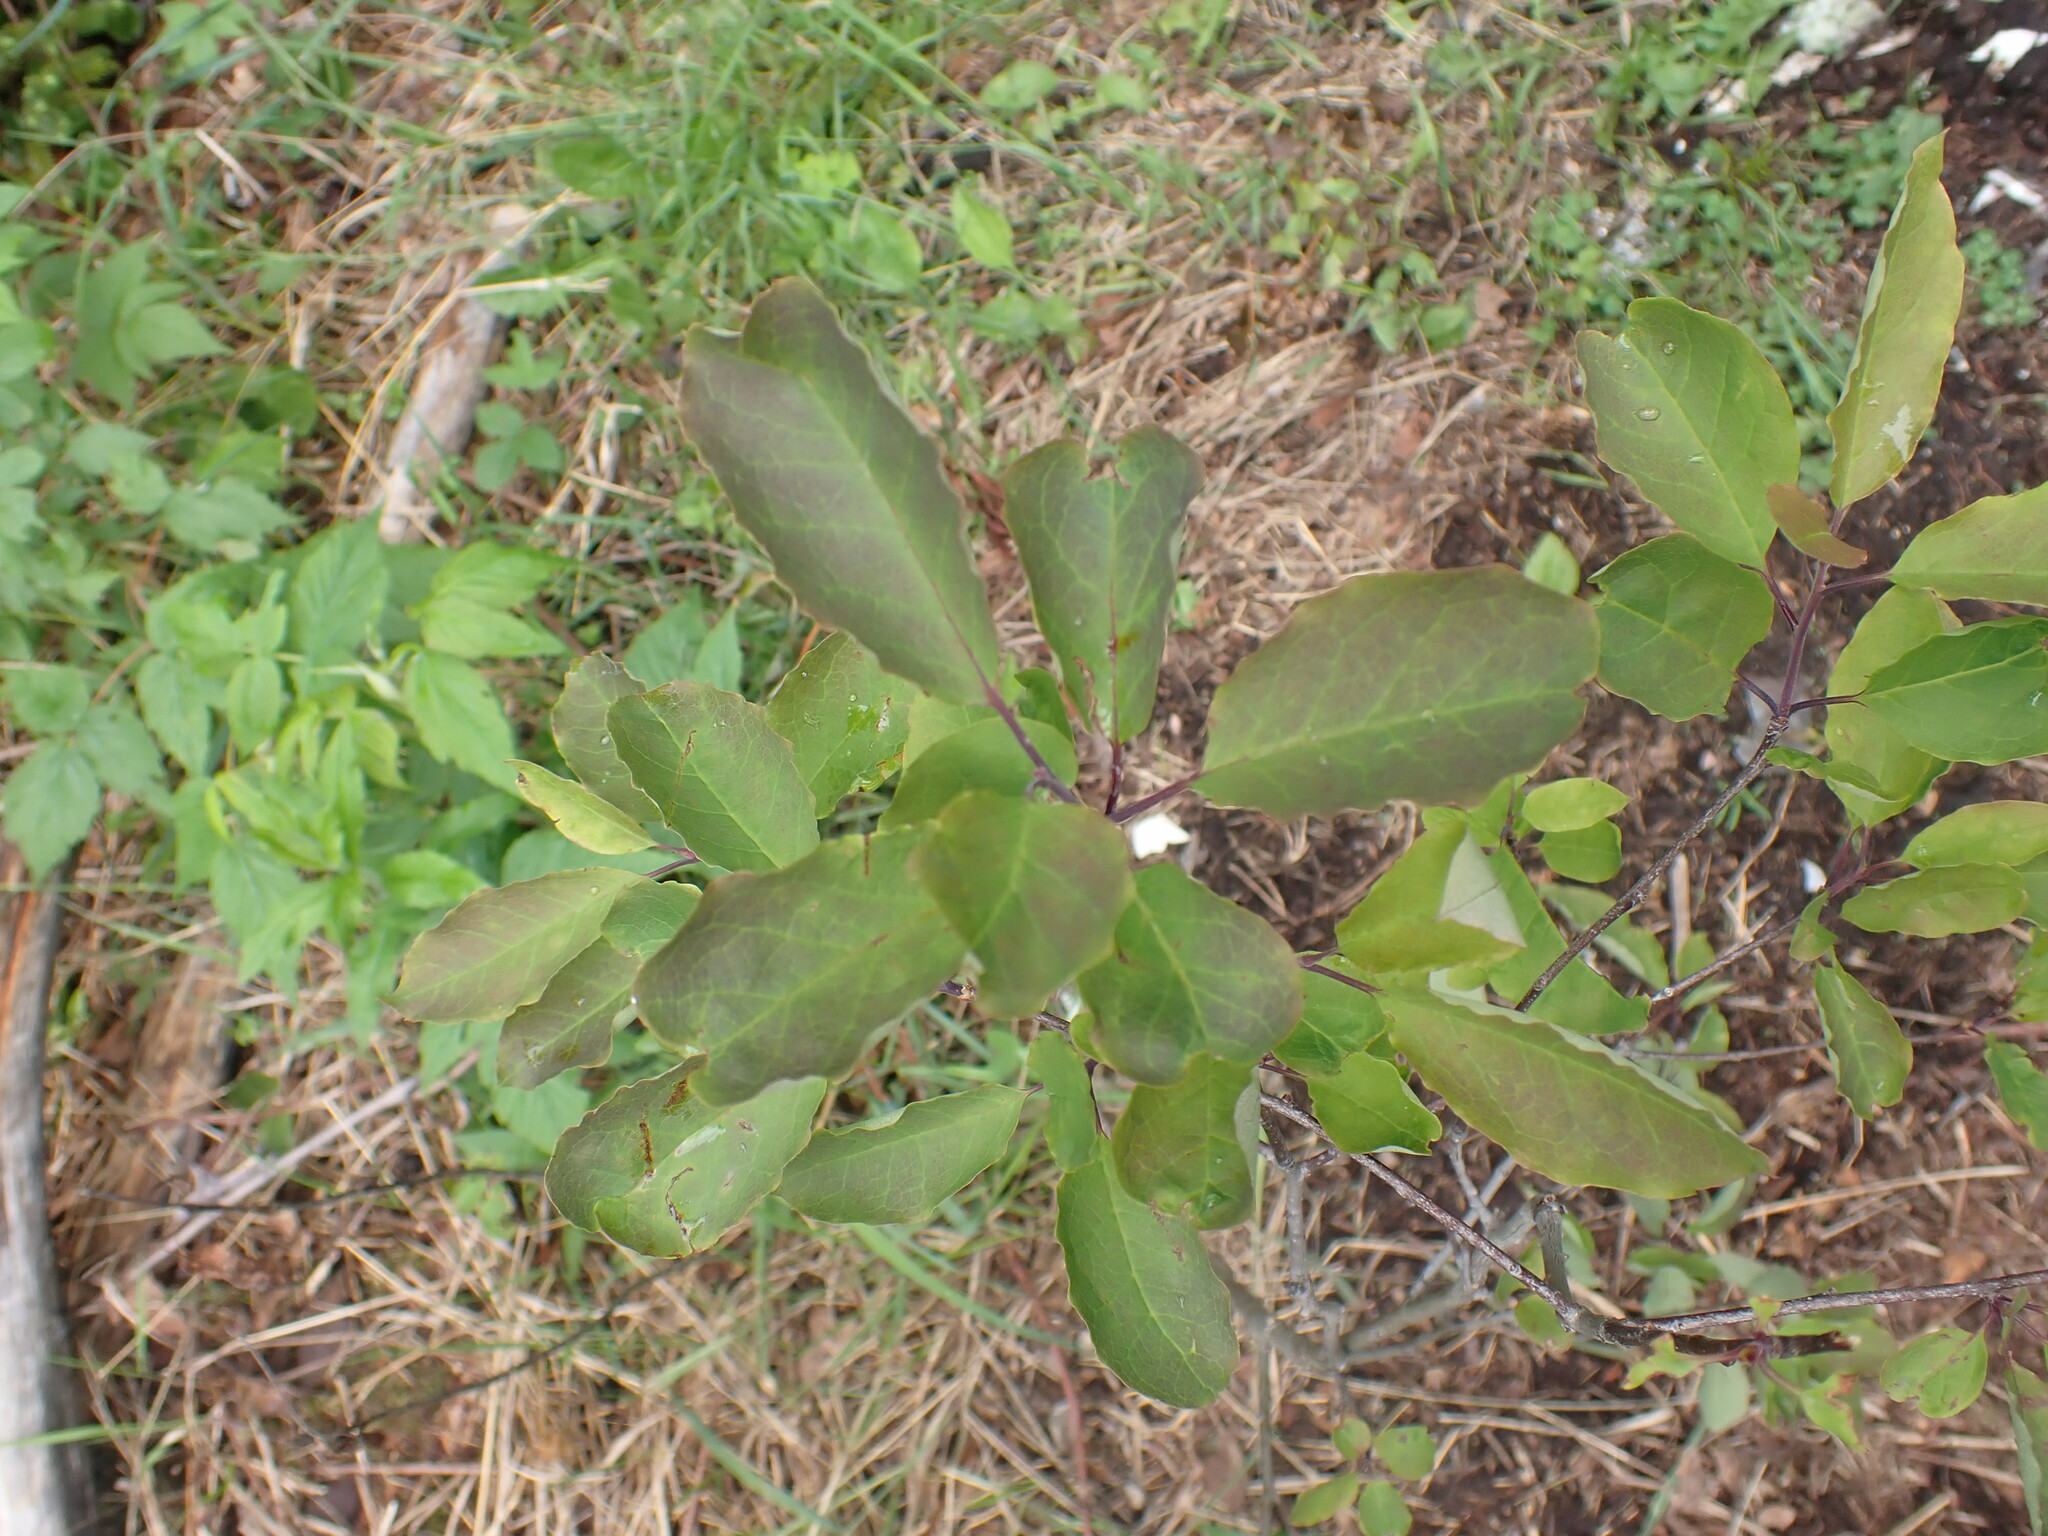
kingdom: Plantae
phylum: Tracheophyta
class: Magnoliopsida
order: Aquifoliales
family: Aquifoliaceae
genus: Ilex
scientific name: Ilex mucronata
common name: Catberry
